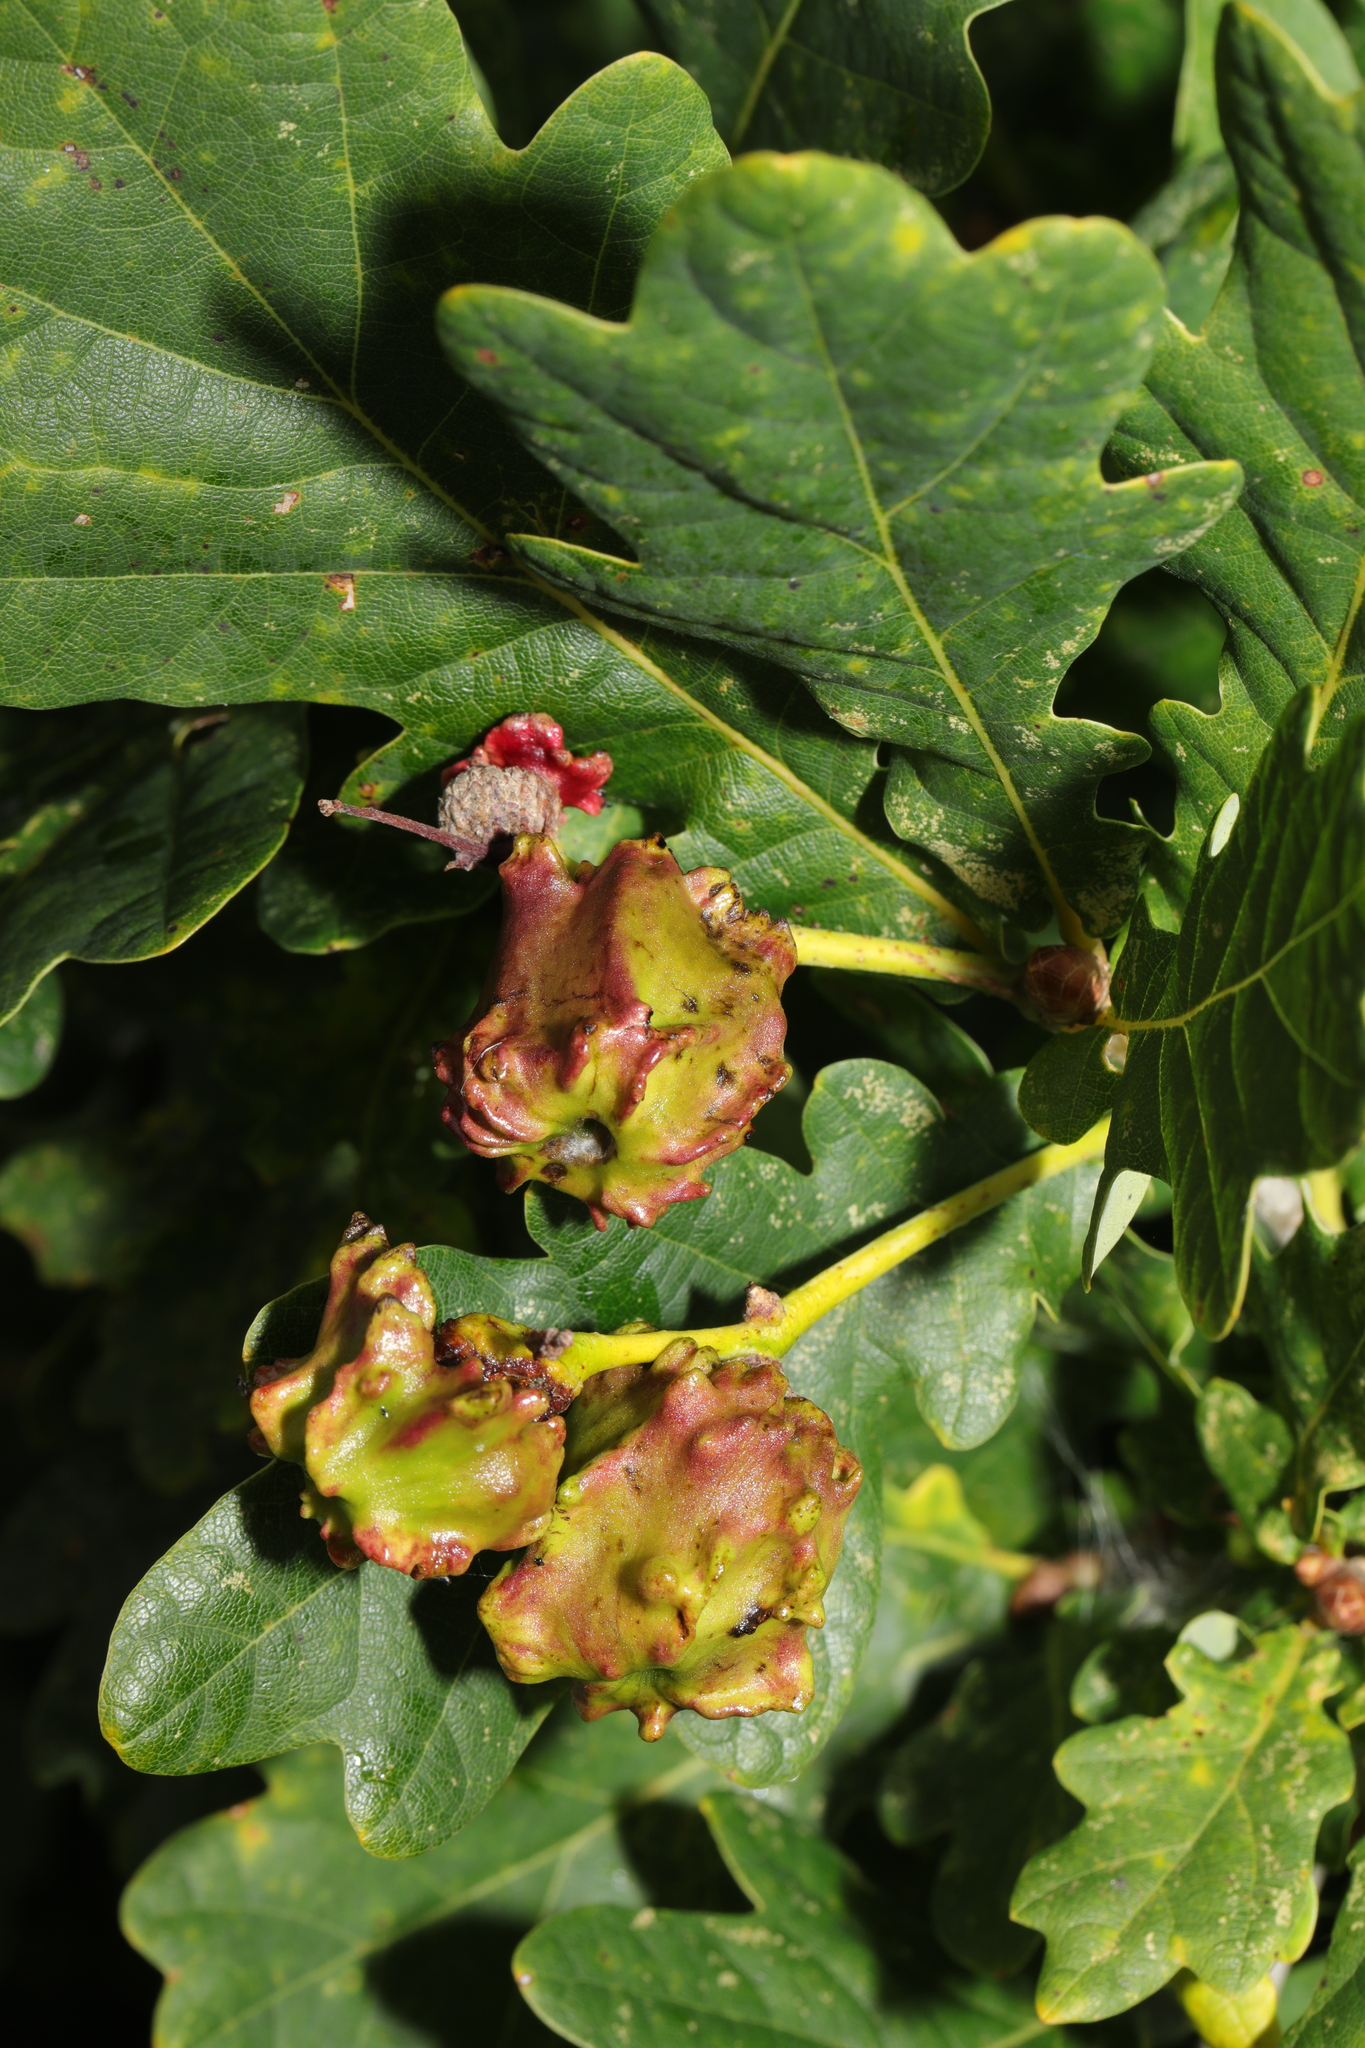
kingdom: Animalia
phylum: Arthropoda
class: Insecta
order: Hymenoptera
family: Cynipidae
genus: Andricus
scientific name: Andricus quercuscalicis
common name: Knopper gall
